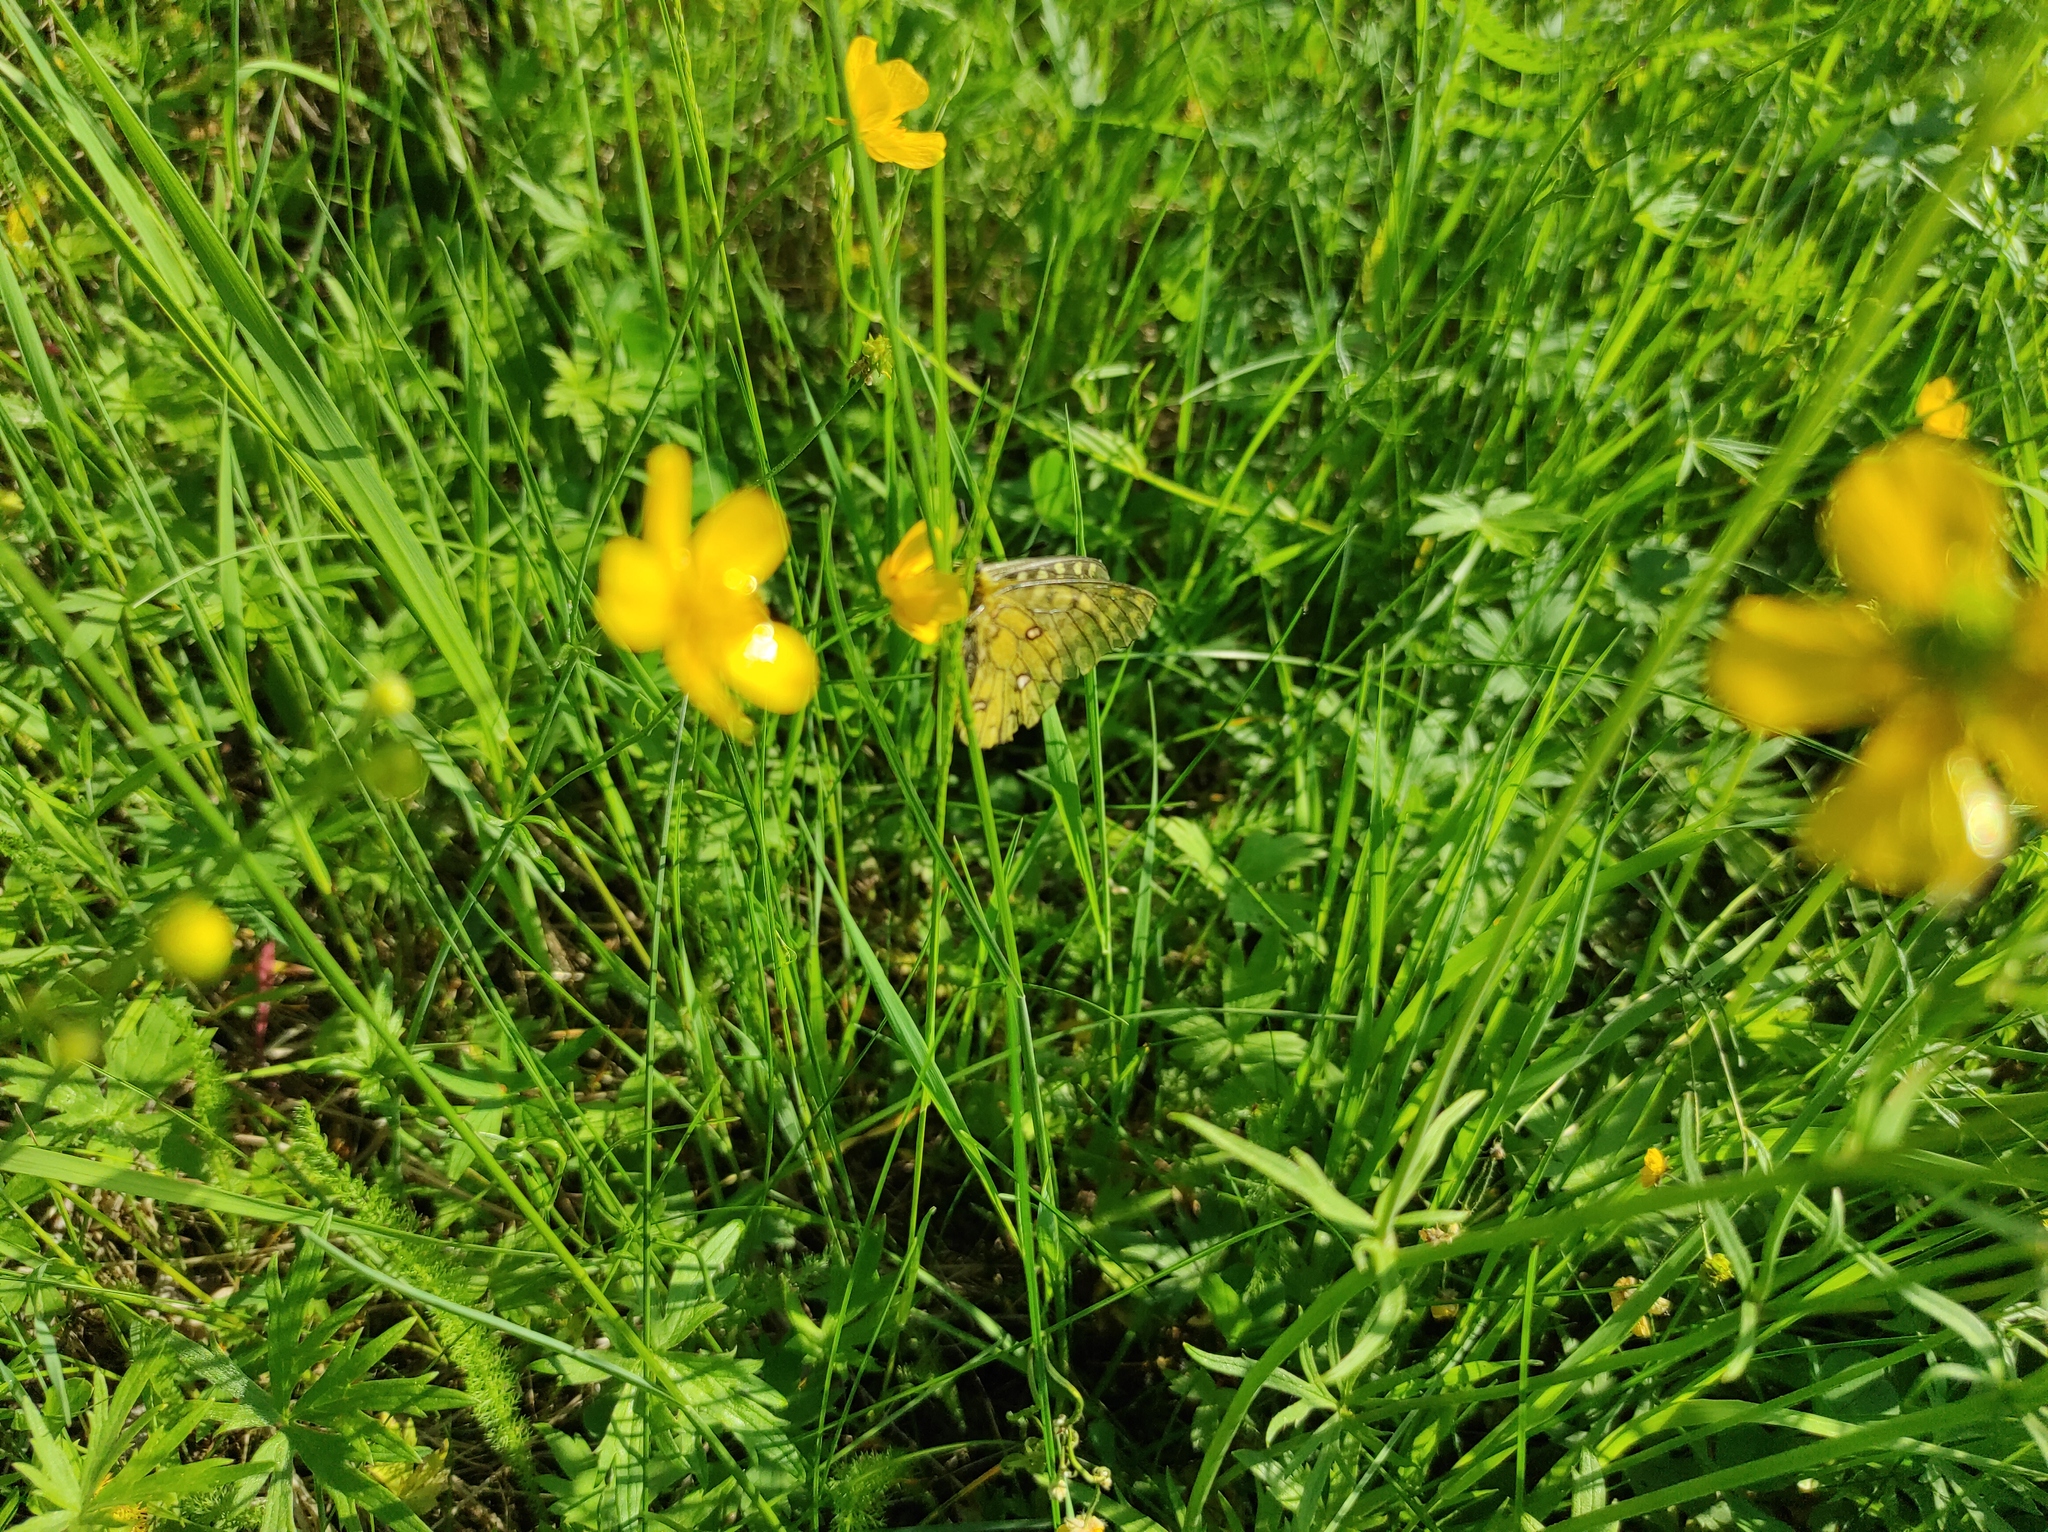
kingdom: Animalia
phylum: Arthropoda
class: Insecta
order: Lepidoptera
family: Papilionidae
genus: Parnassius
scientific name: Parnassius eversmanni
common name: Eversmann's parnassian
